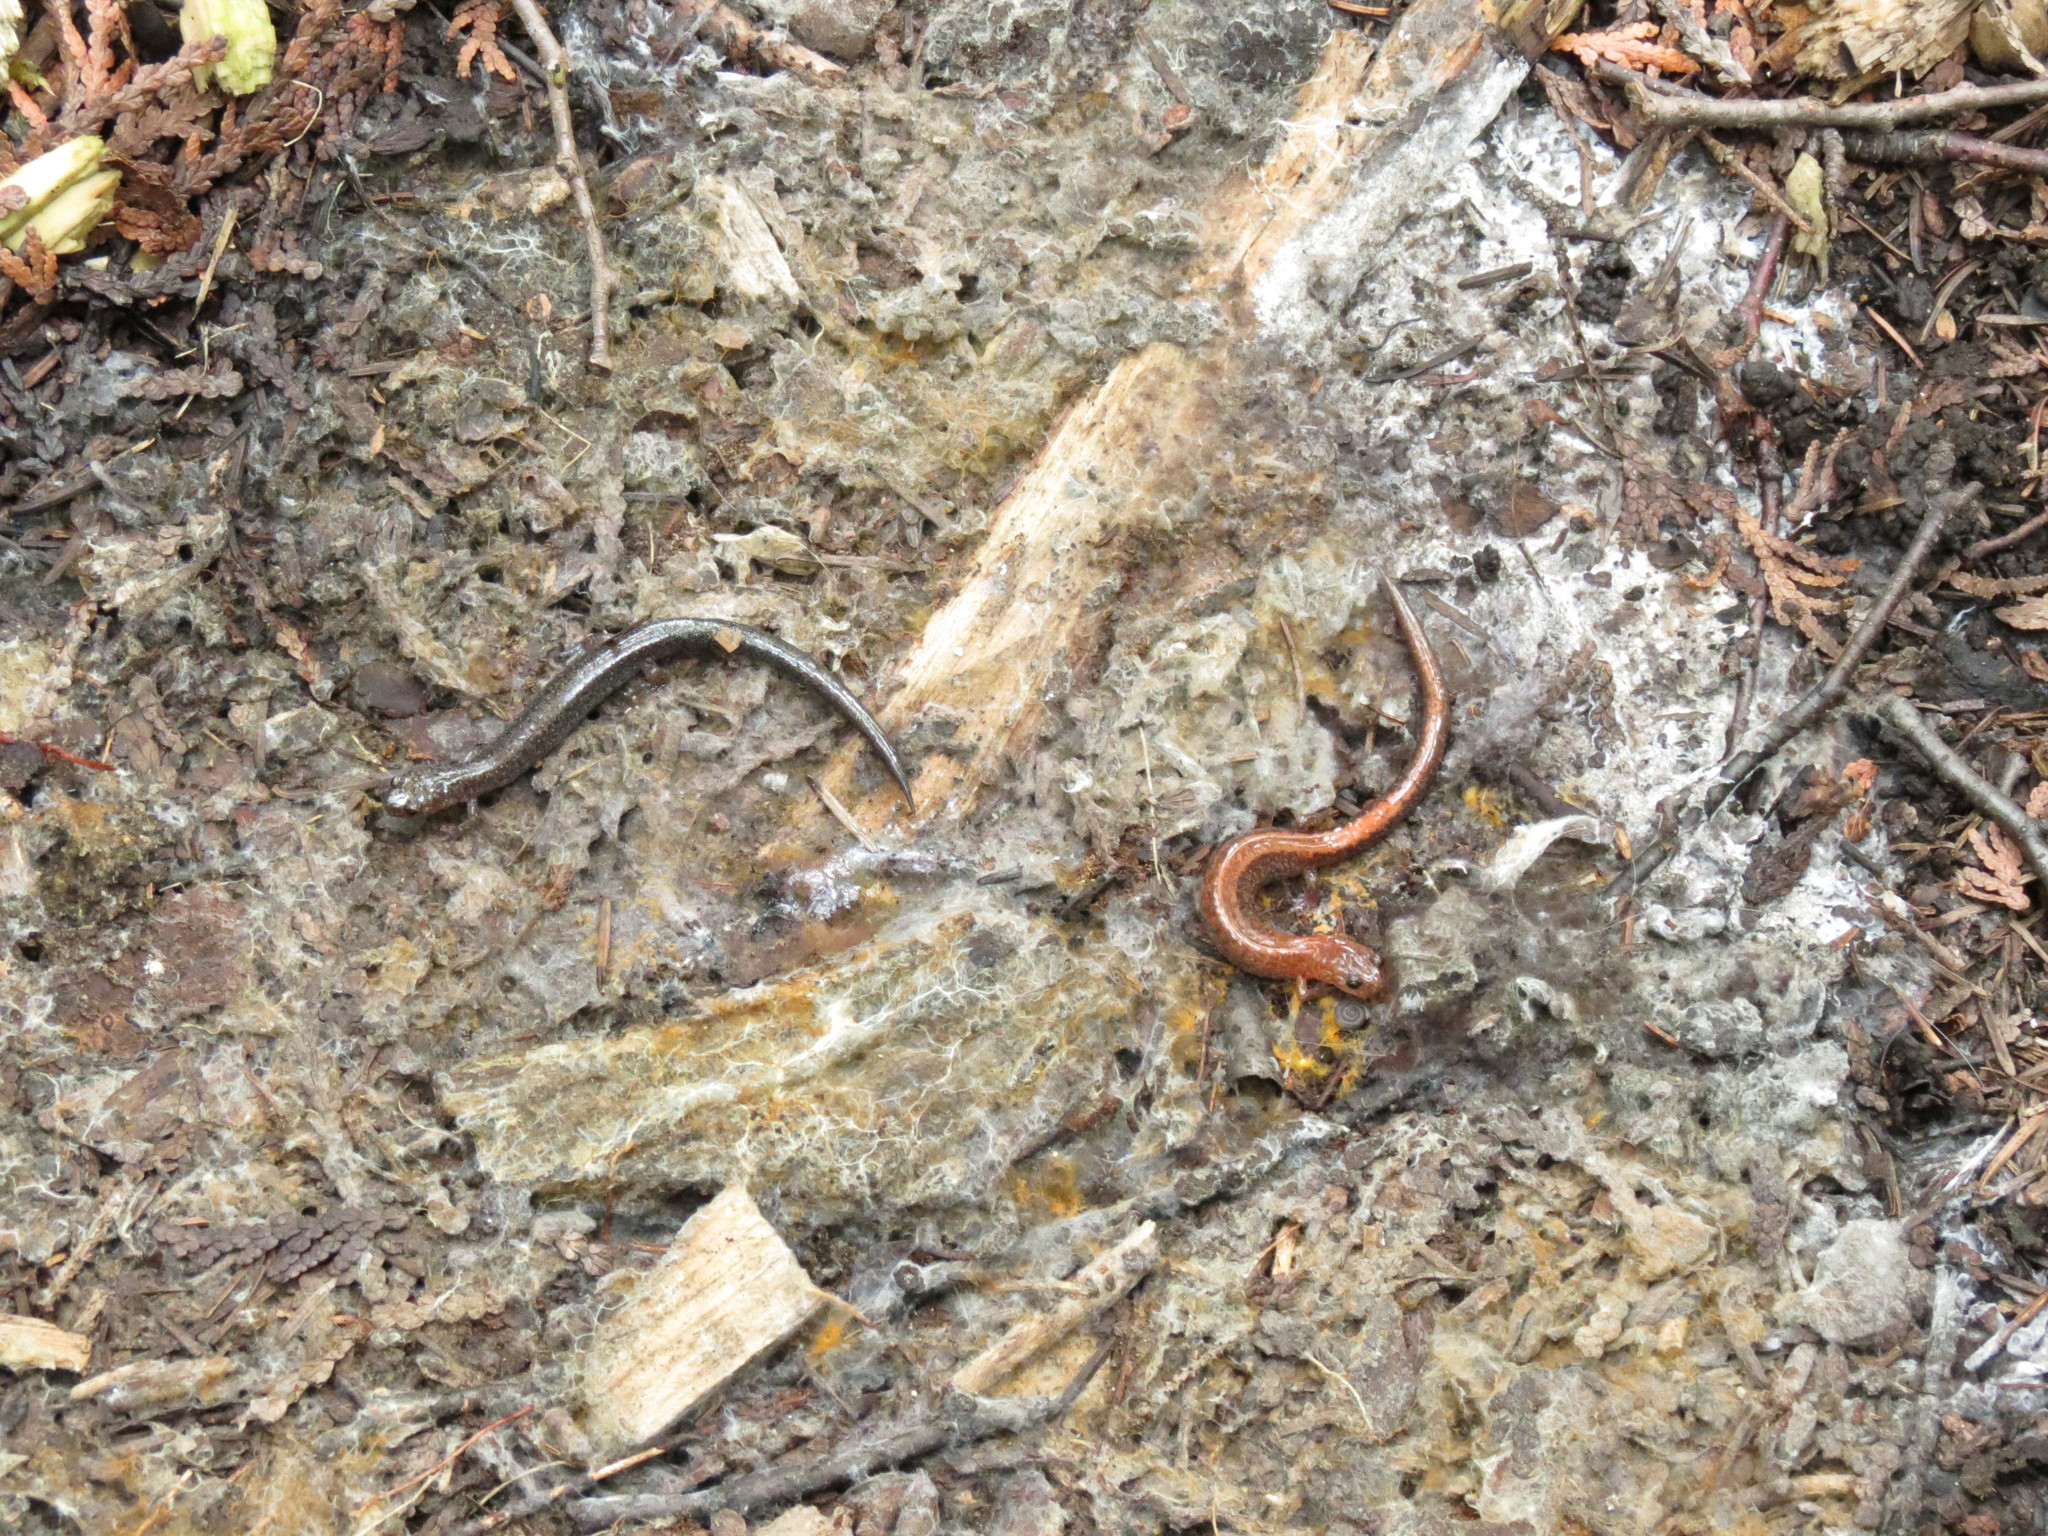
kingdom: Animalia
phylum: Chordata
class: Amphibia
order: Caudata
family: Plethodontidae
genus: Plethodon
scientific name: Plethodon cinereus
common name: Redback salamander
